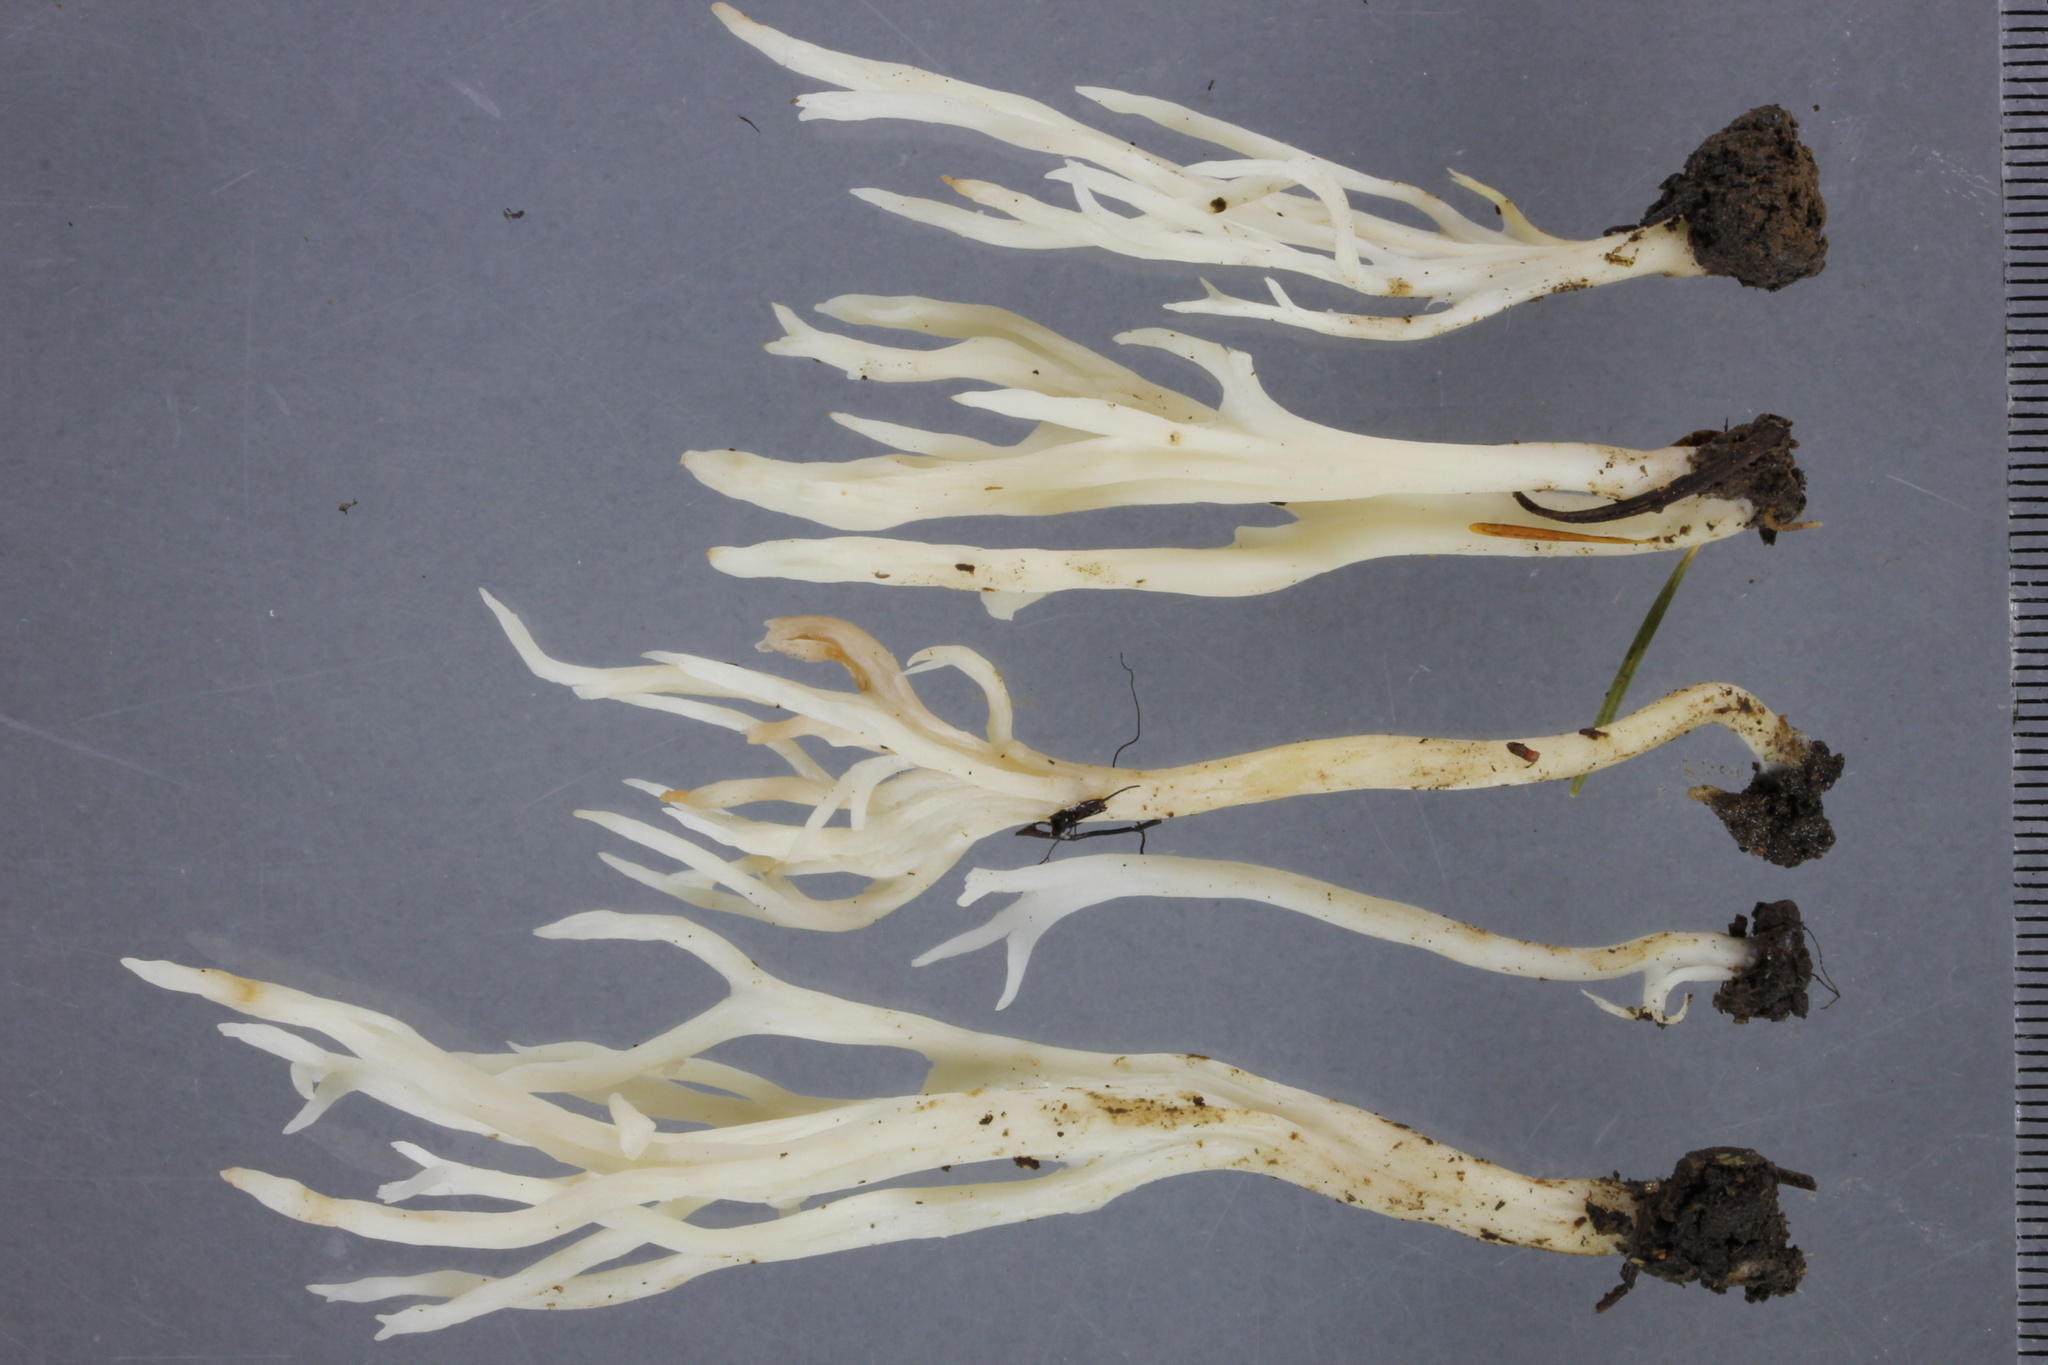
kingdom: Fungi
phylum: Basidiomycota
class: Agaricomycetes
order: Cantharellales
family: Hydnaceae
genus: Clavulina
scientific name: Clavulina rugosa
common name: Wrinkled club
